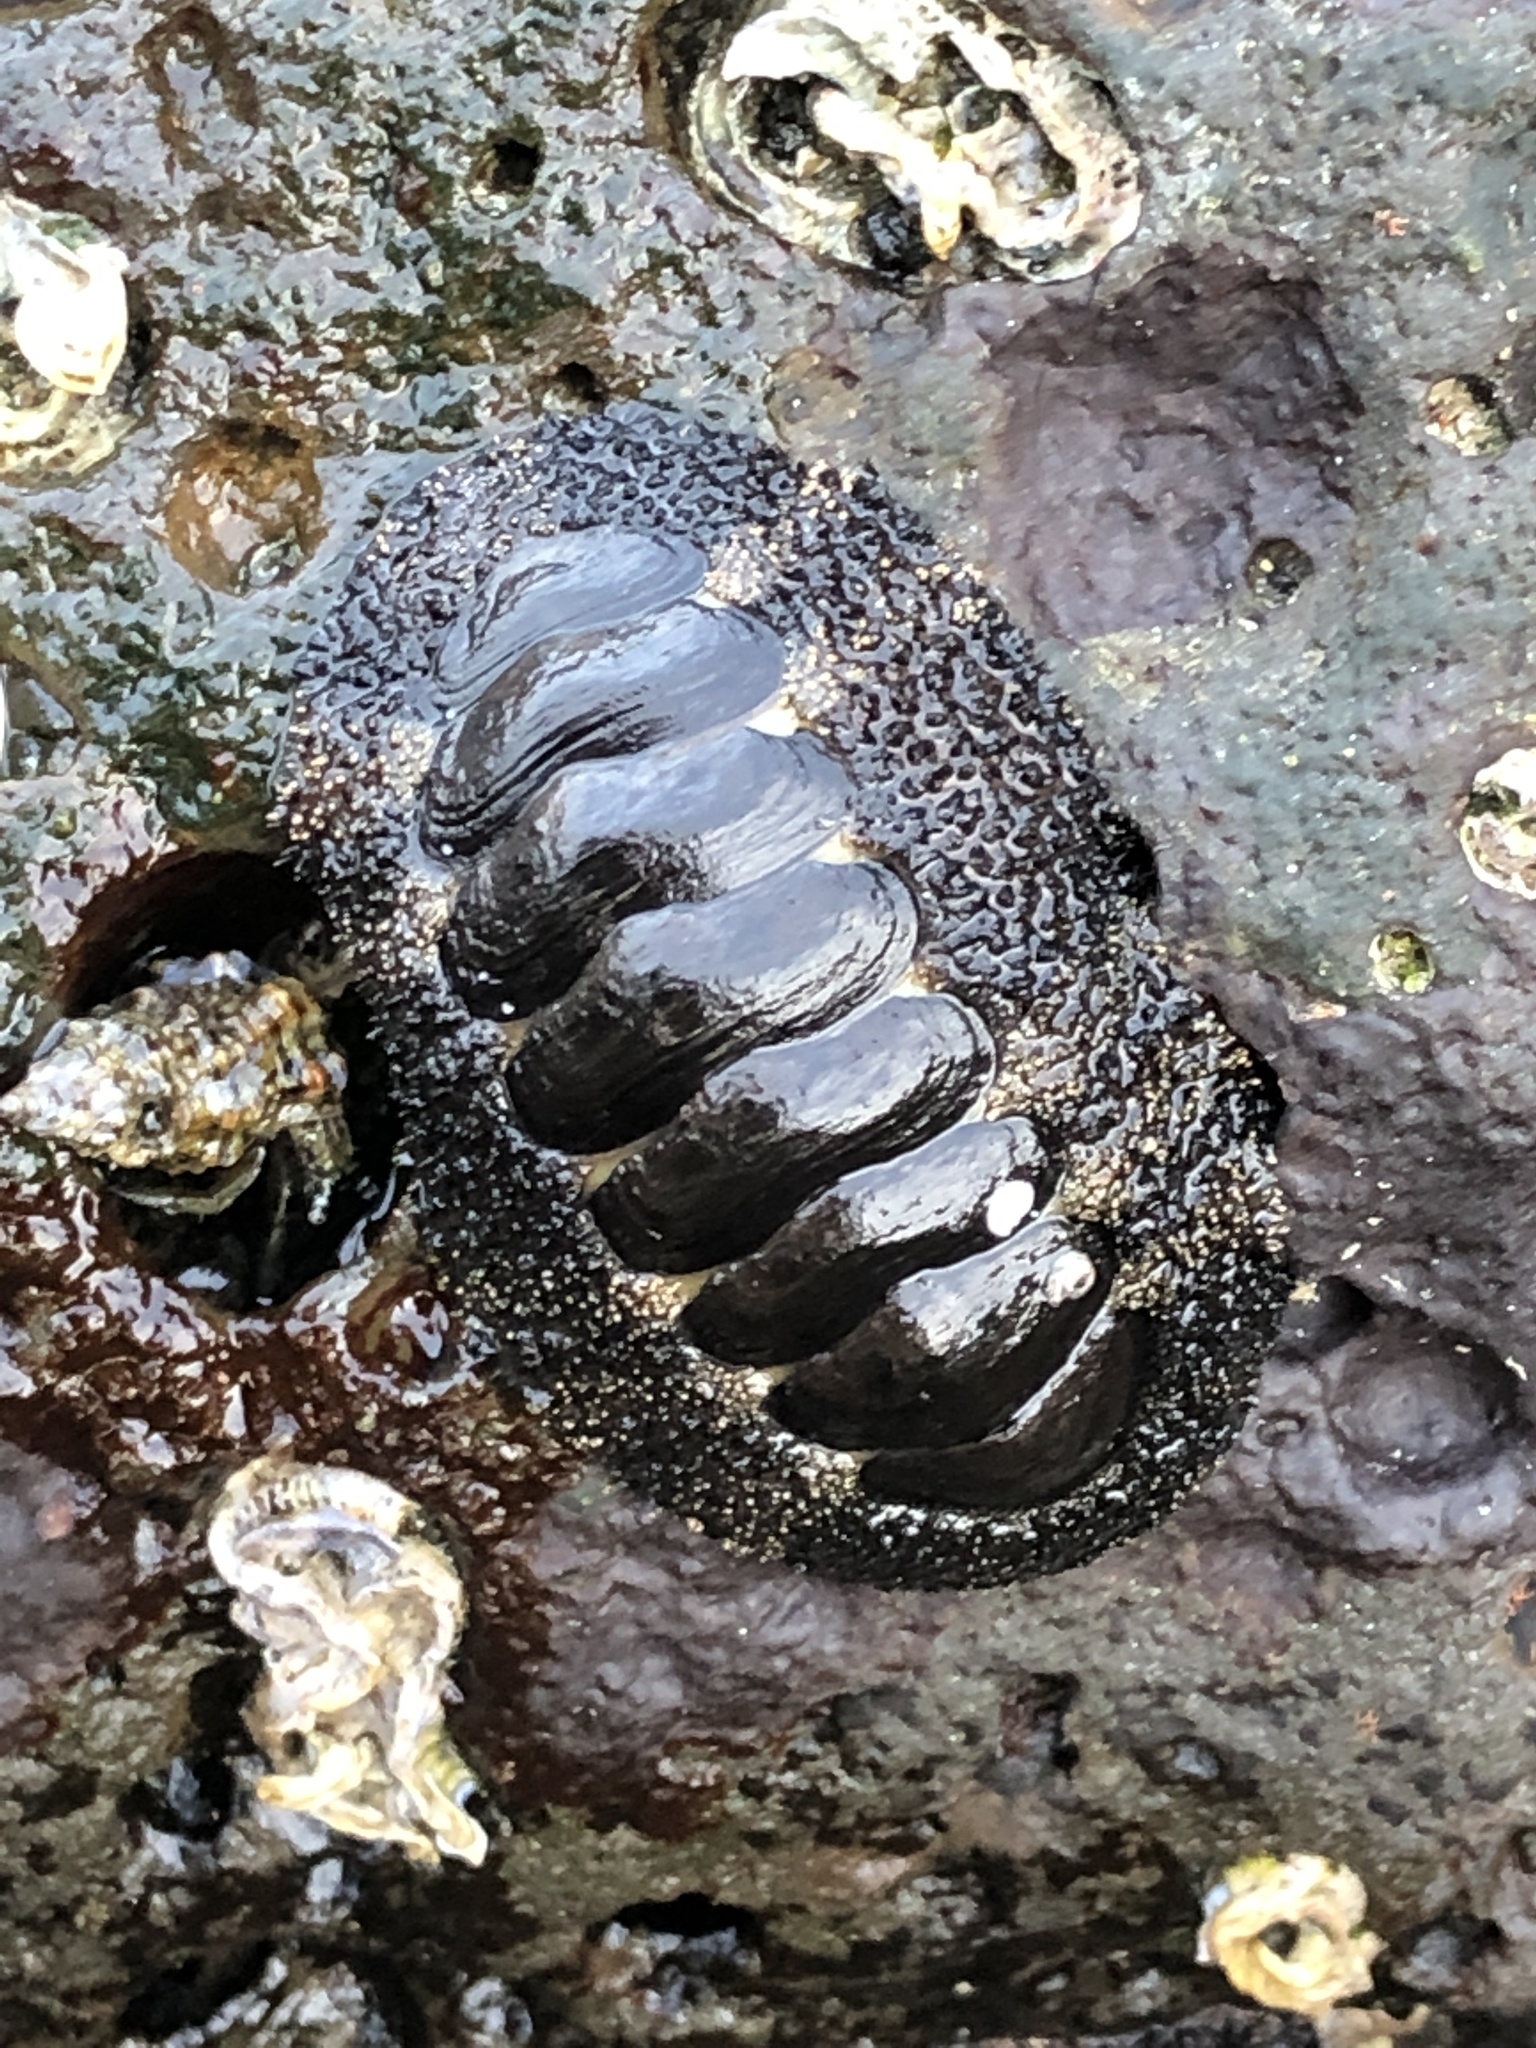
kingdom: Animalia
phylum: Mollusca
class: Polyplacophora
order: Chitonida
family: Chitonidae
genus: Liolophura
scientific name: Liolophura japonica
